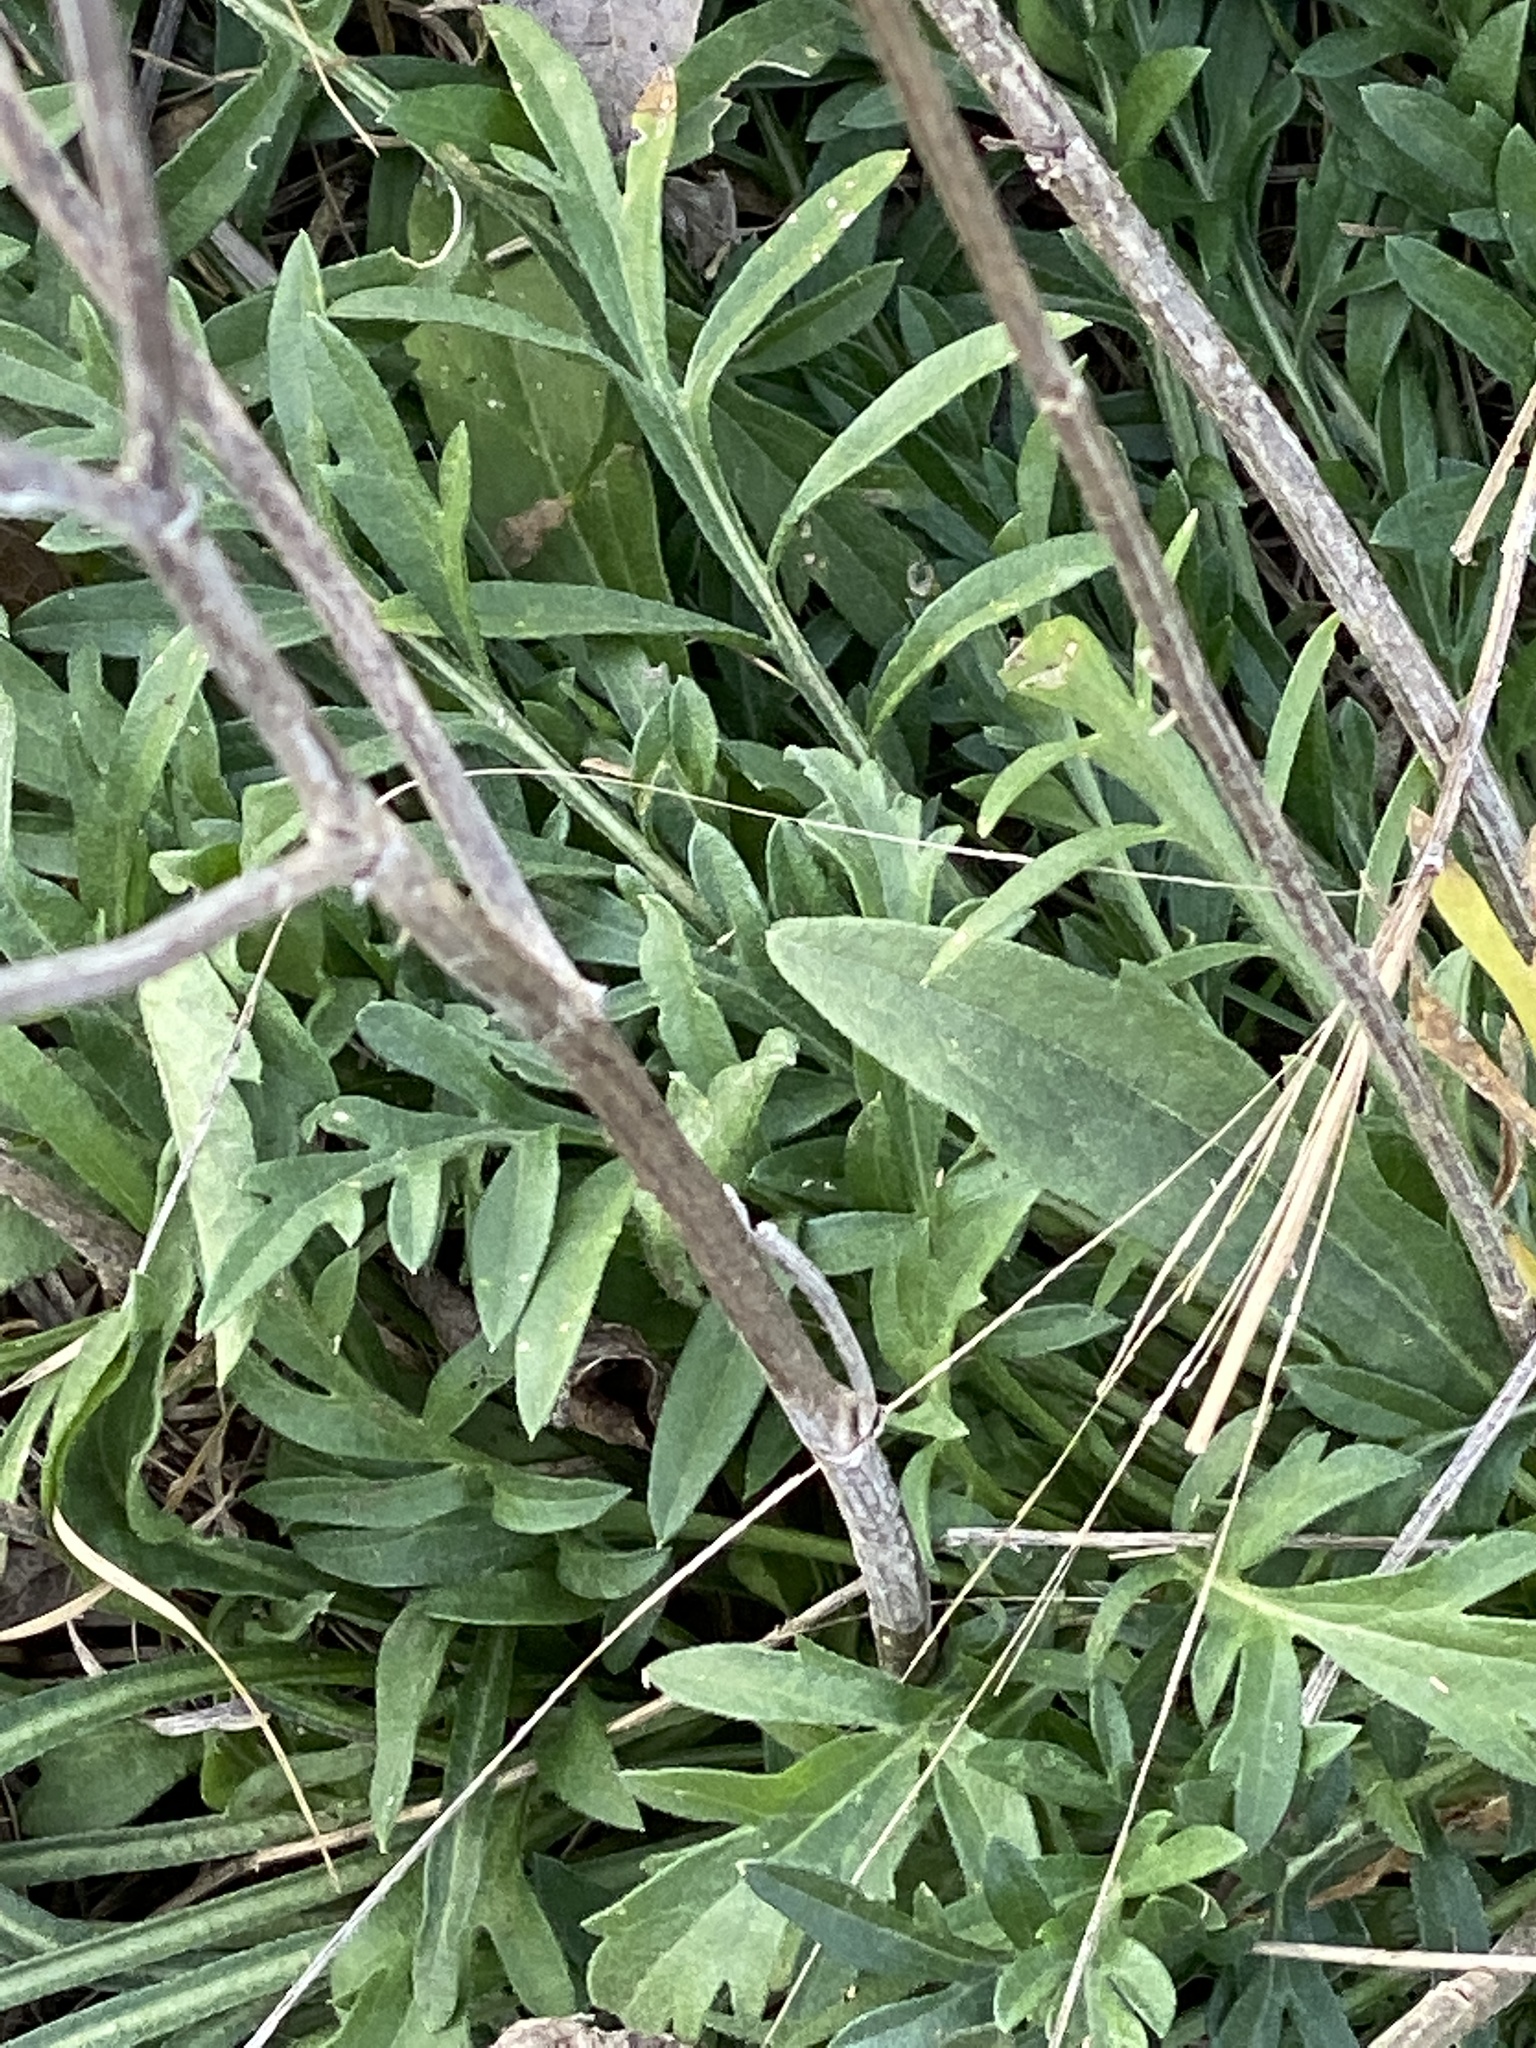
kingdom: Plantae
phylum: Tracheophyta
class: Magnoliopsida
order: Asterales
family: Asteraceae
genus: Ratibida
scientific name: Ratibida columnifera
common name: Prairie coneflower
